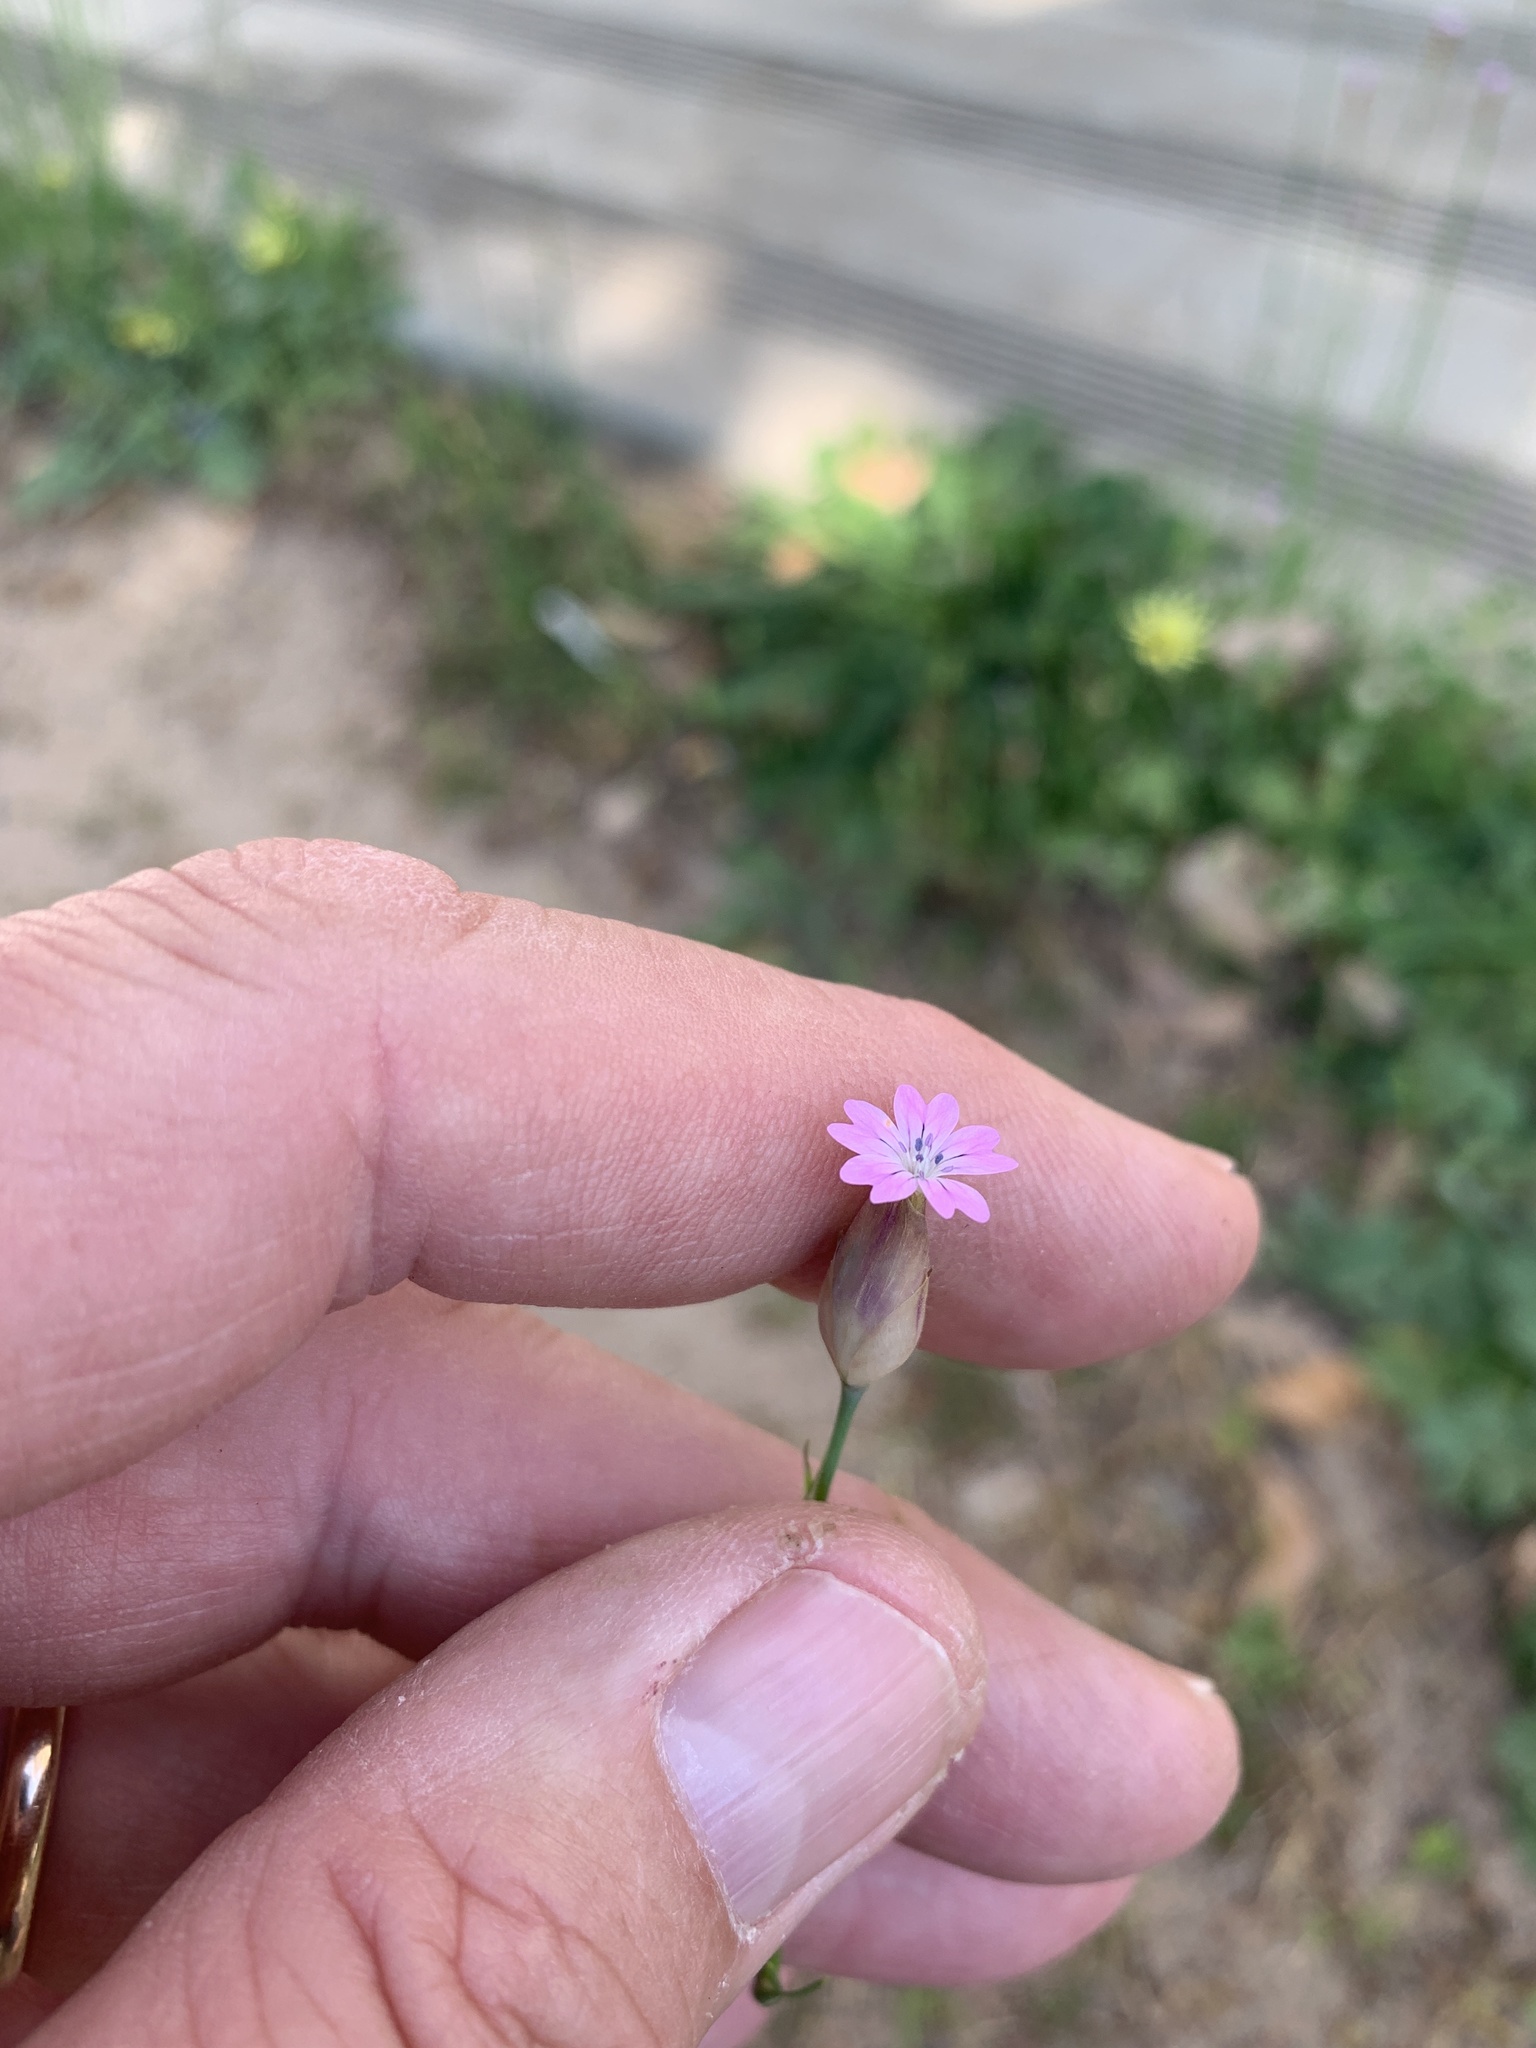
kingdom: Plantae
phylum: Tracheophyta
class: Magnoliopsida
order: Caryophyllales
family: Caryophyllaceae
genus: Petrorhagia
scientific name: Petrorhagia dubia
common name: Hairypink
